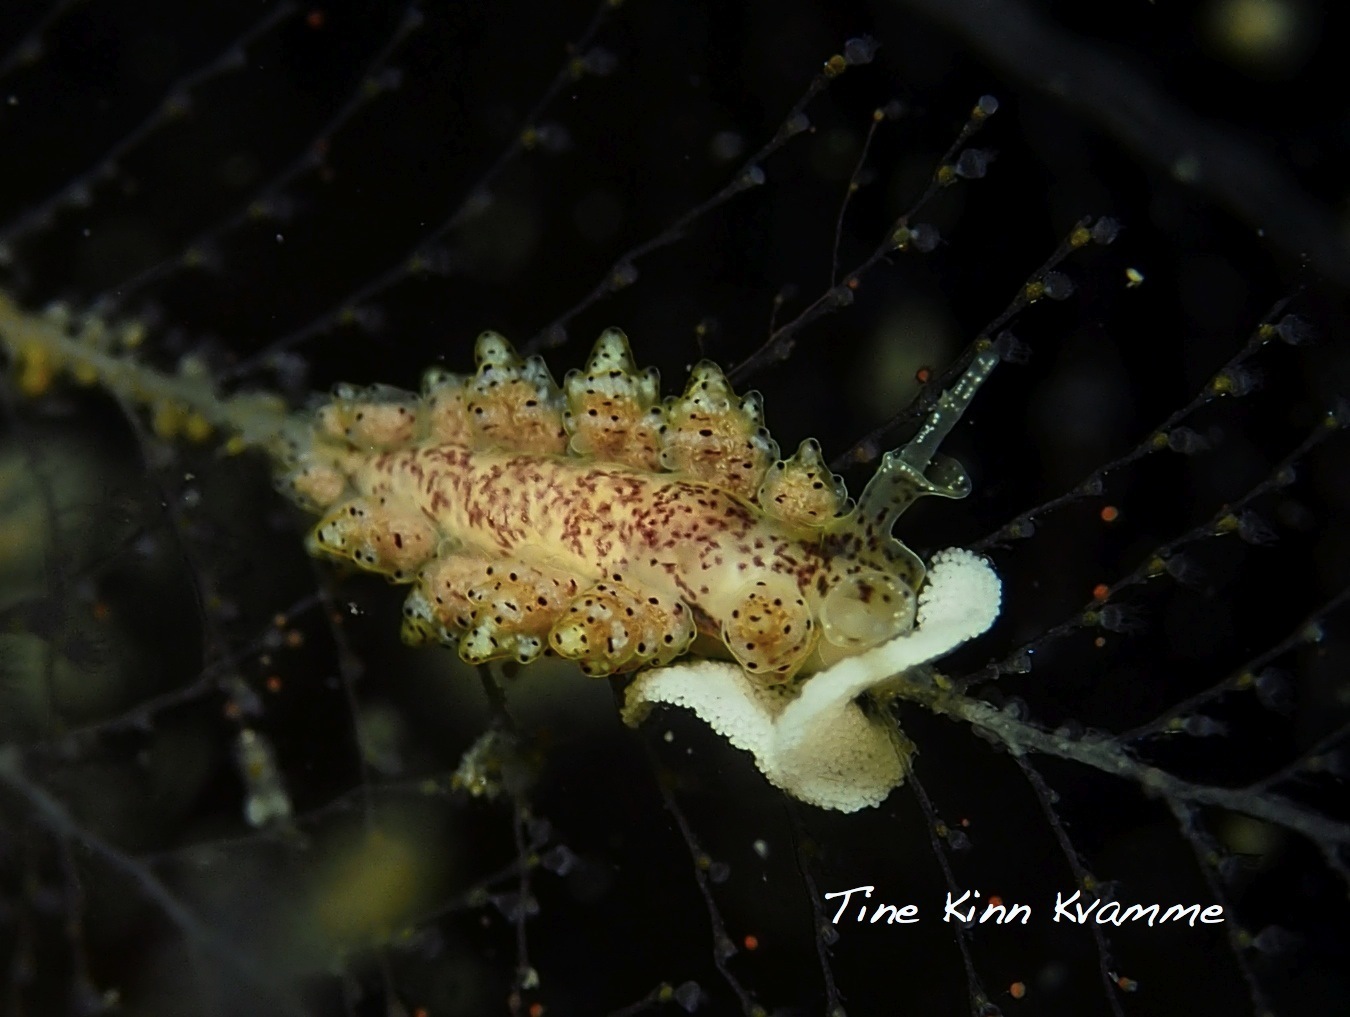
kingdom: Animalia
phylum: Mollusca
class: Gastropoda
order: Nudibranchia
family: Dotidae
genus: Doto
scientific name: Doto dunnei
